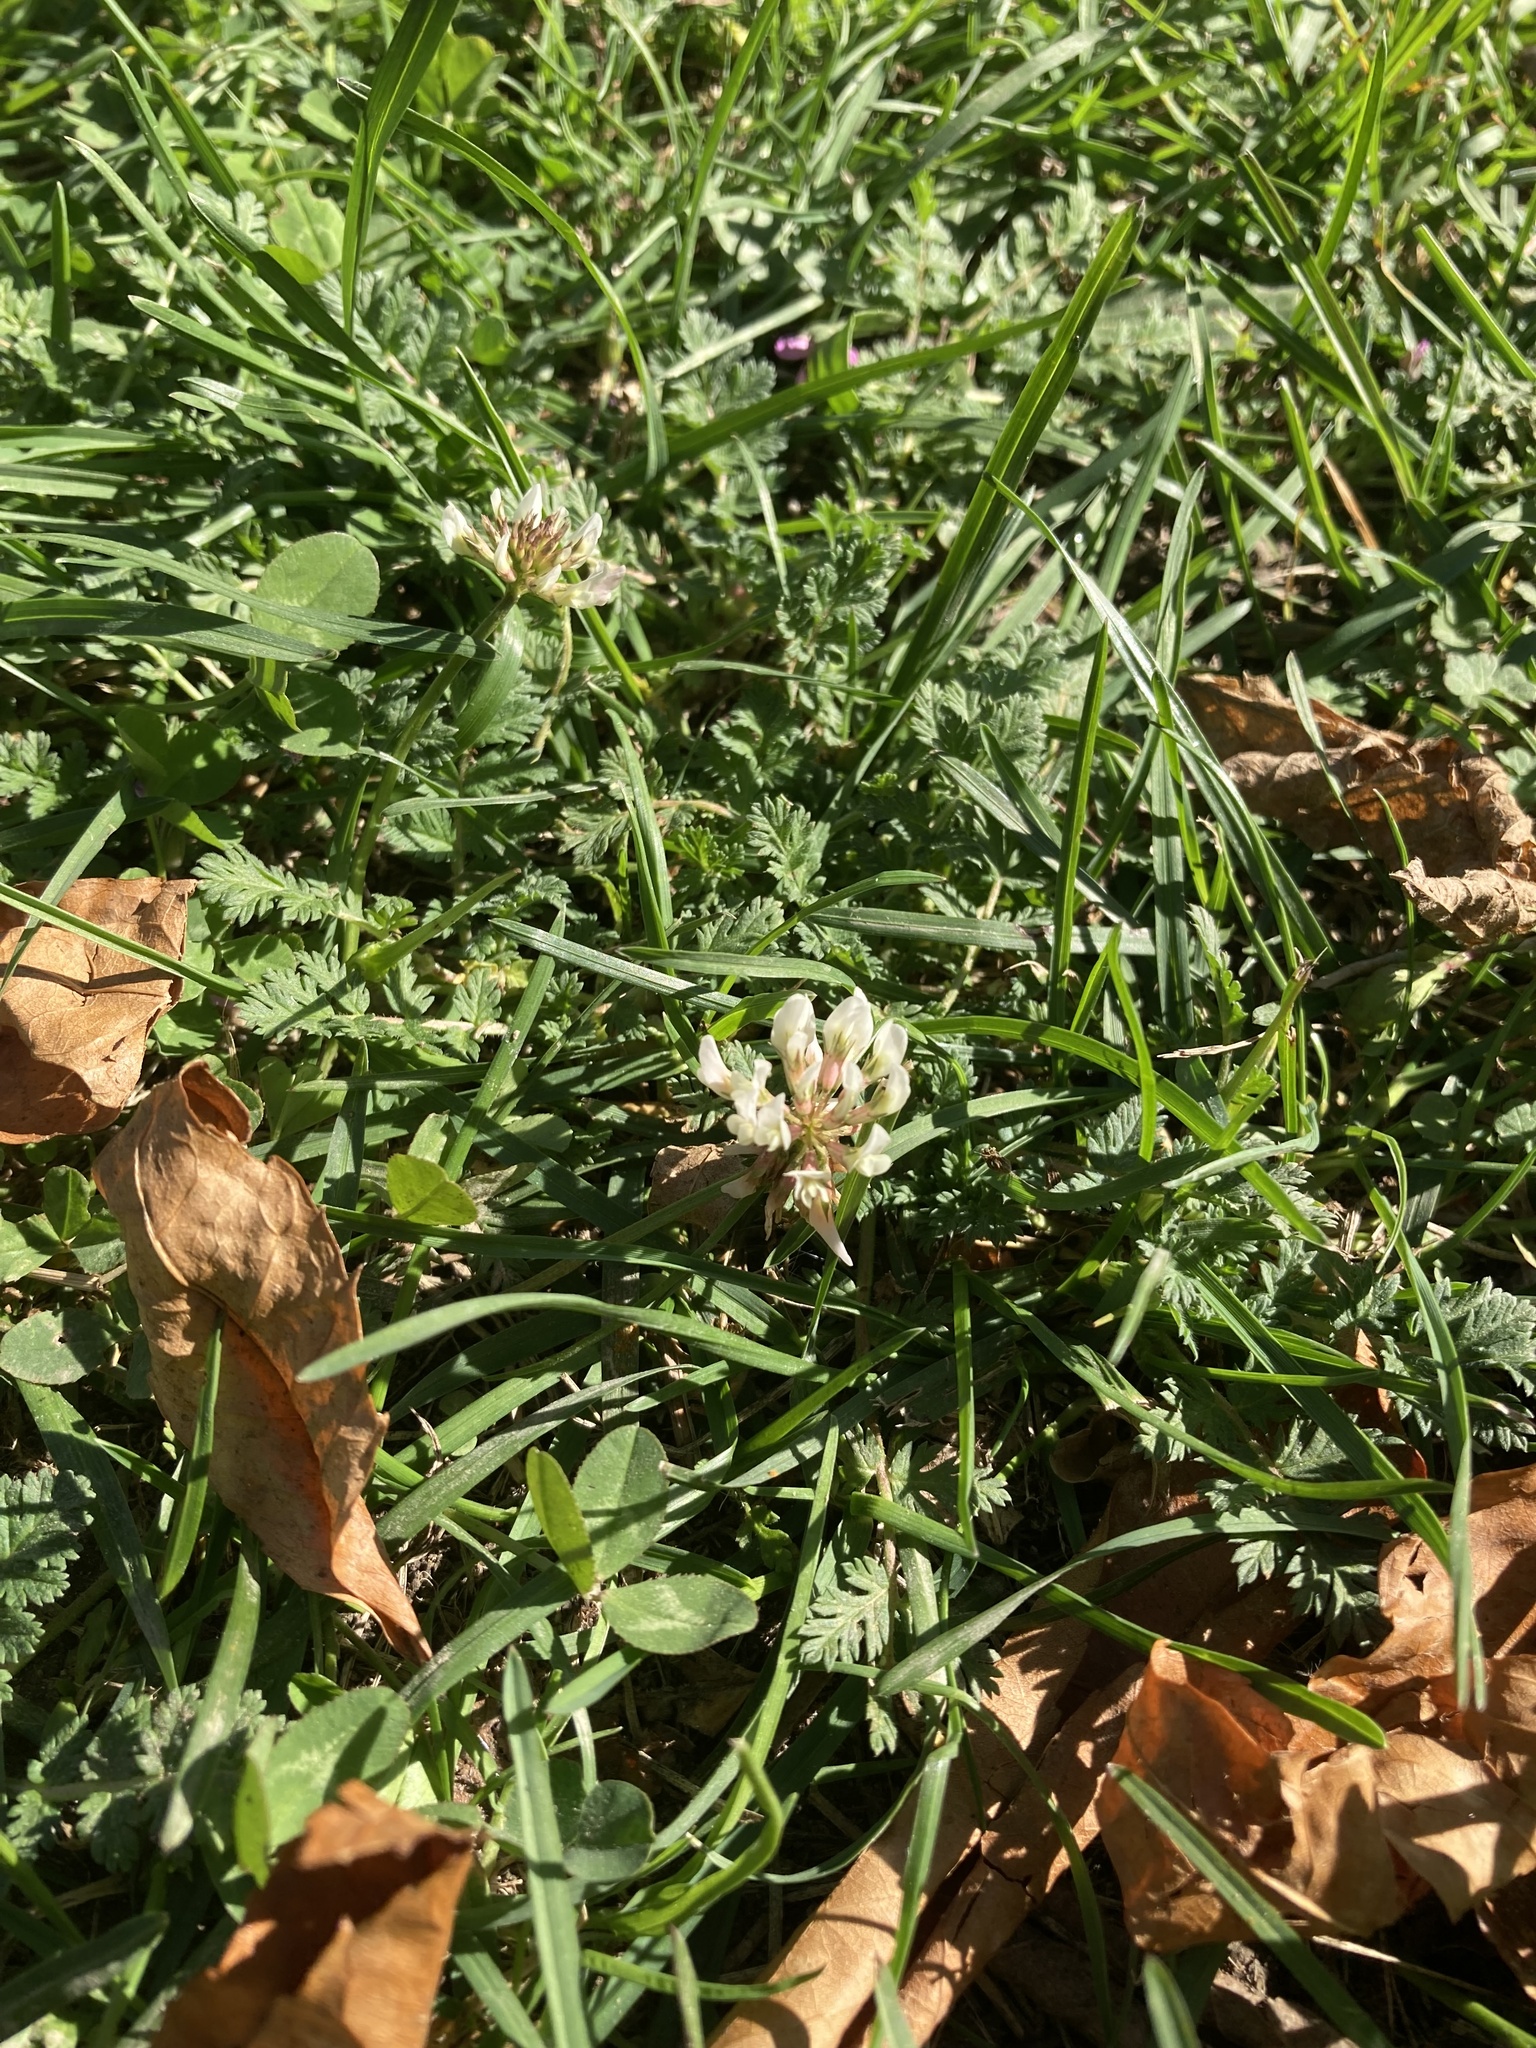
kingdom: Plantae
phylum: Tracheophyta
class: Magnoliopsida
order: Fabales
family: Fabaceae
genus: Trifolium
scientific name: Trifolium repens
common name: White clover
